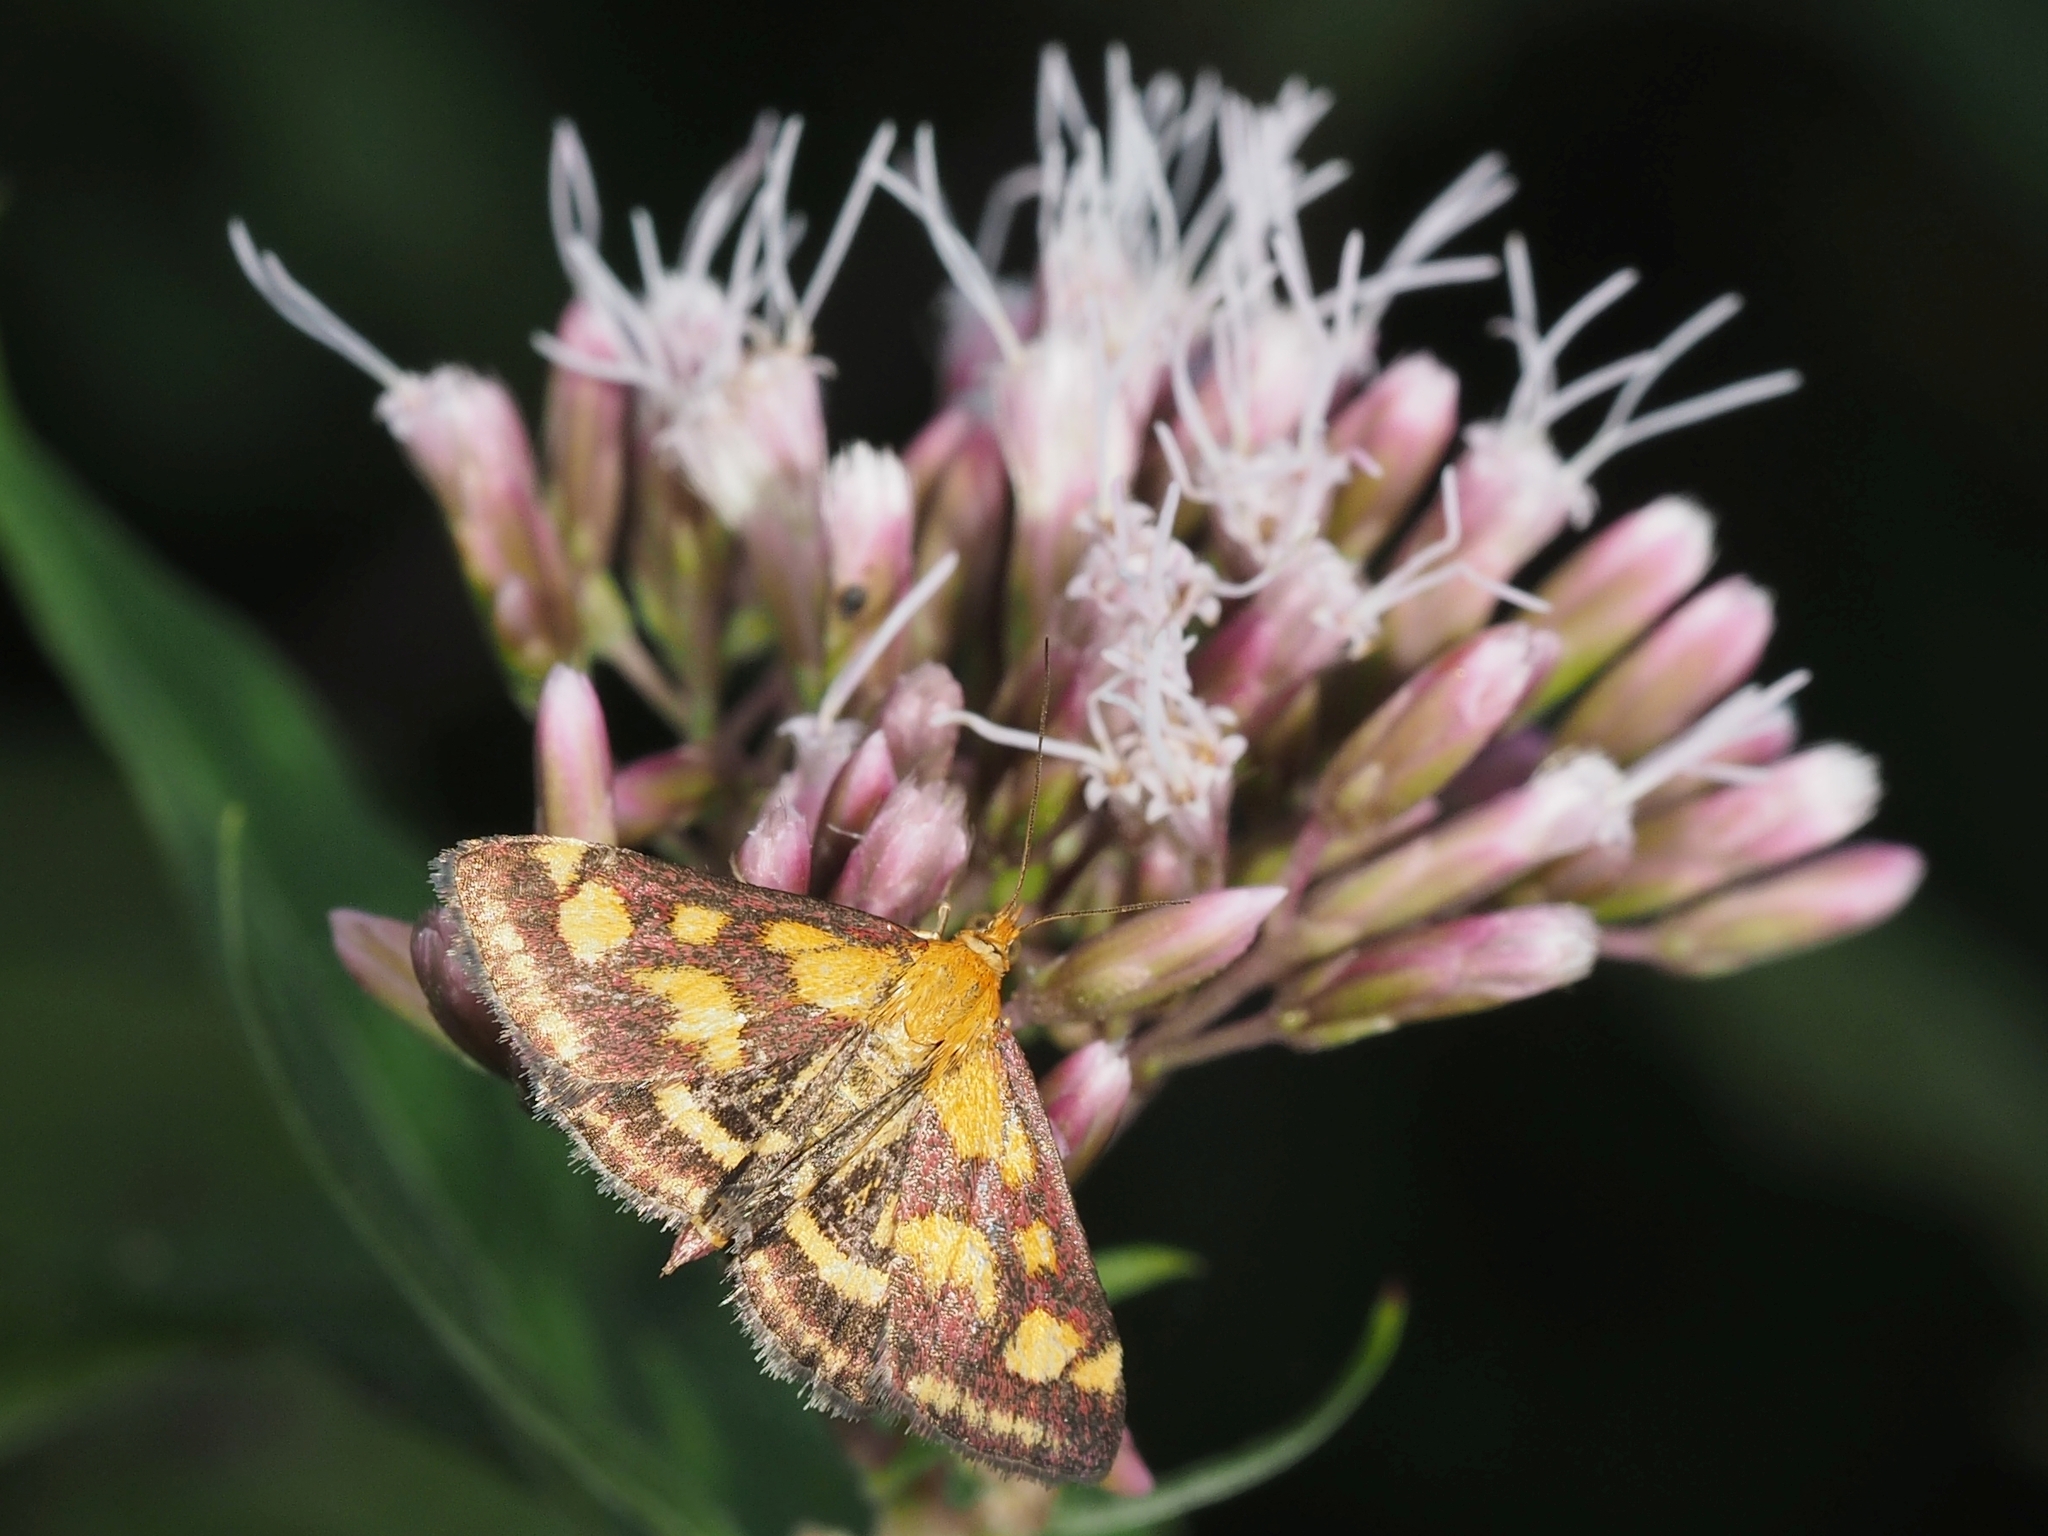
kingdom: Animalia
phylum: Arthropoda
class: Insecta
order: Lepidoptera
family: Crambidae
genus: Pyrausta
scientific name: Pyrausta purpuralis
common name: Common purple & gold
